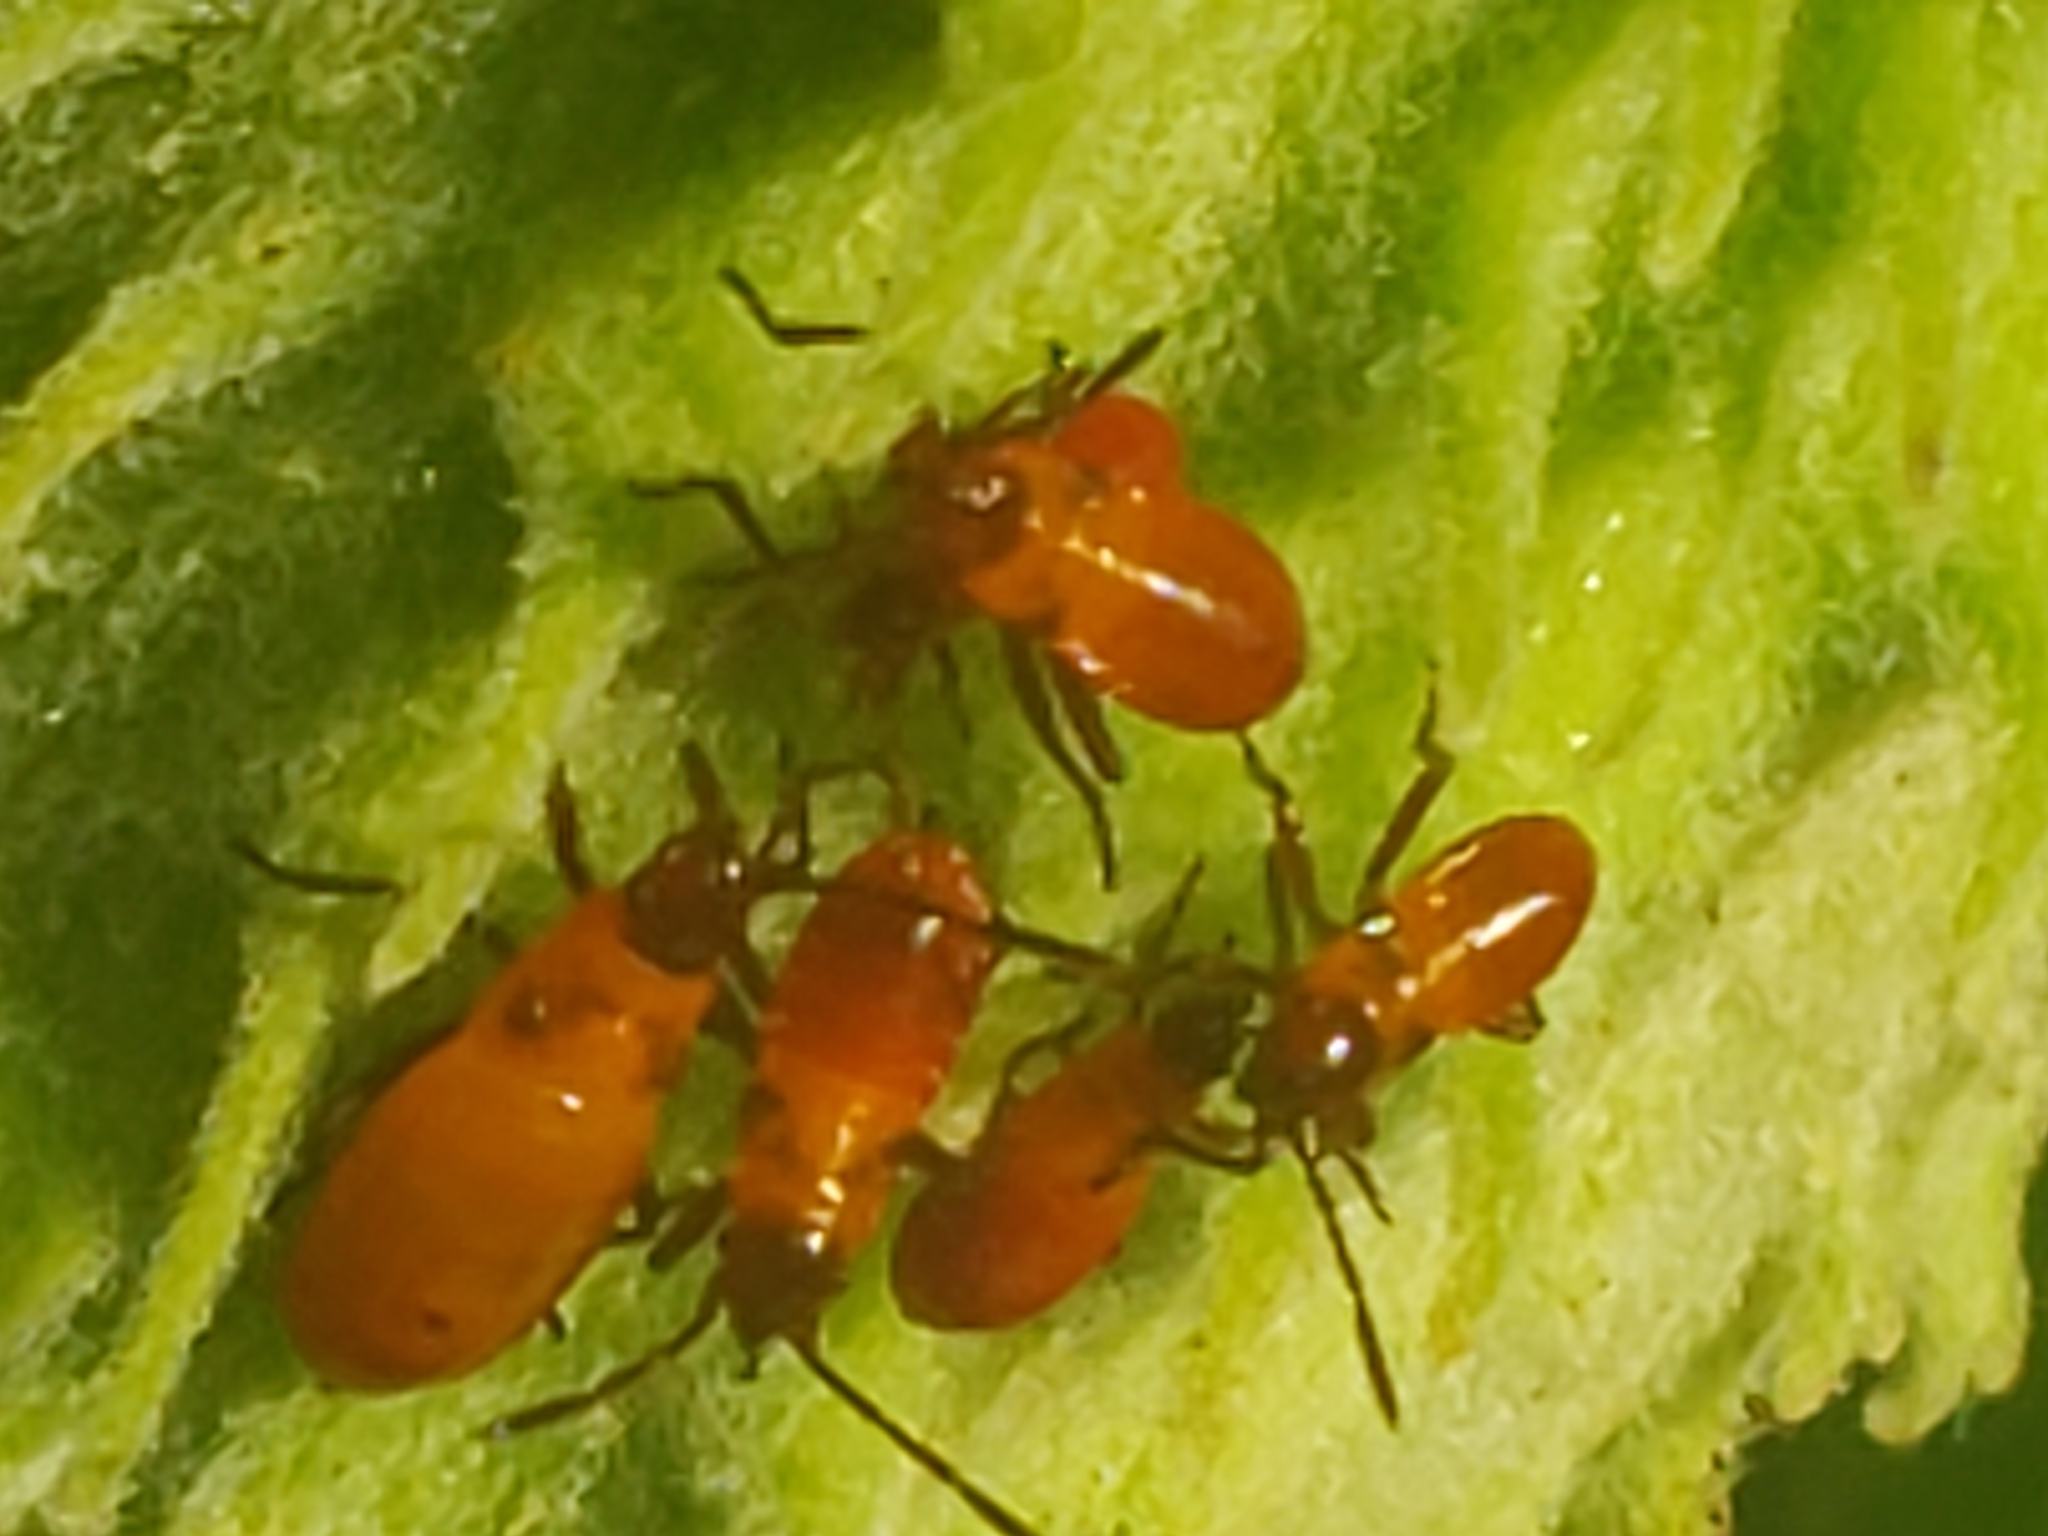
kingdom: Animalia
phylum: Arthropoda
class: Insecta
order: Hemiptera
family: Lygaeidae
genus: Oncopeltus
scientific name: Oncopeltus fasciatus
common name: Large milkweed bug
